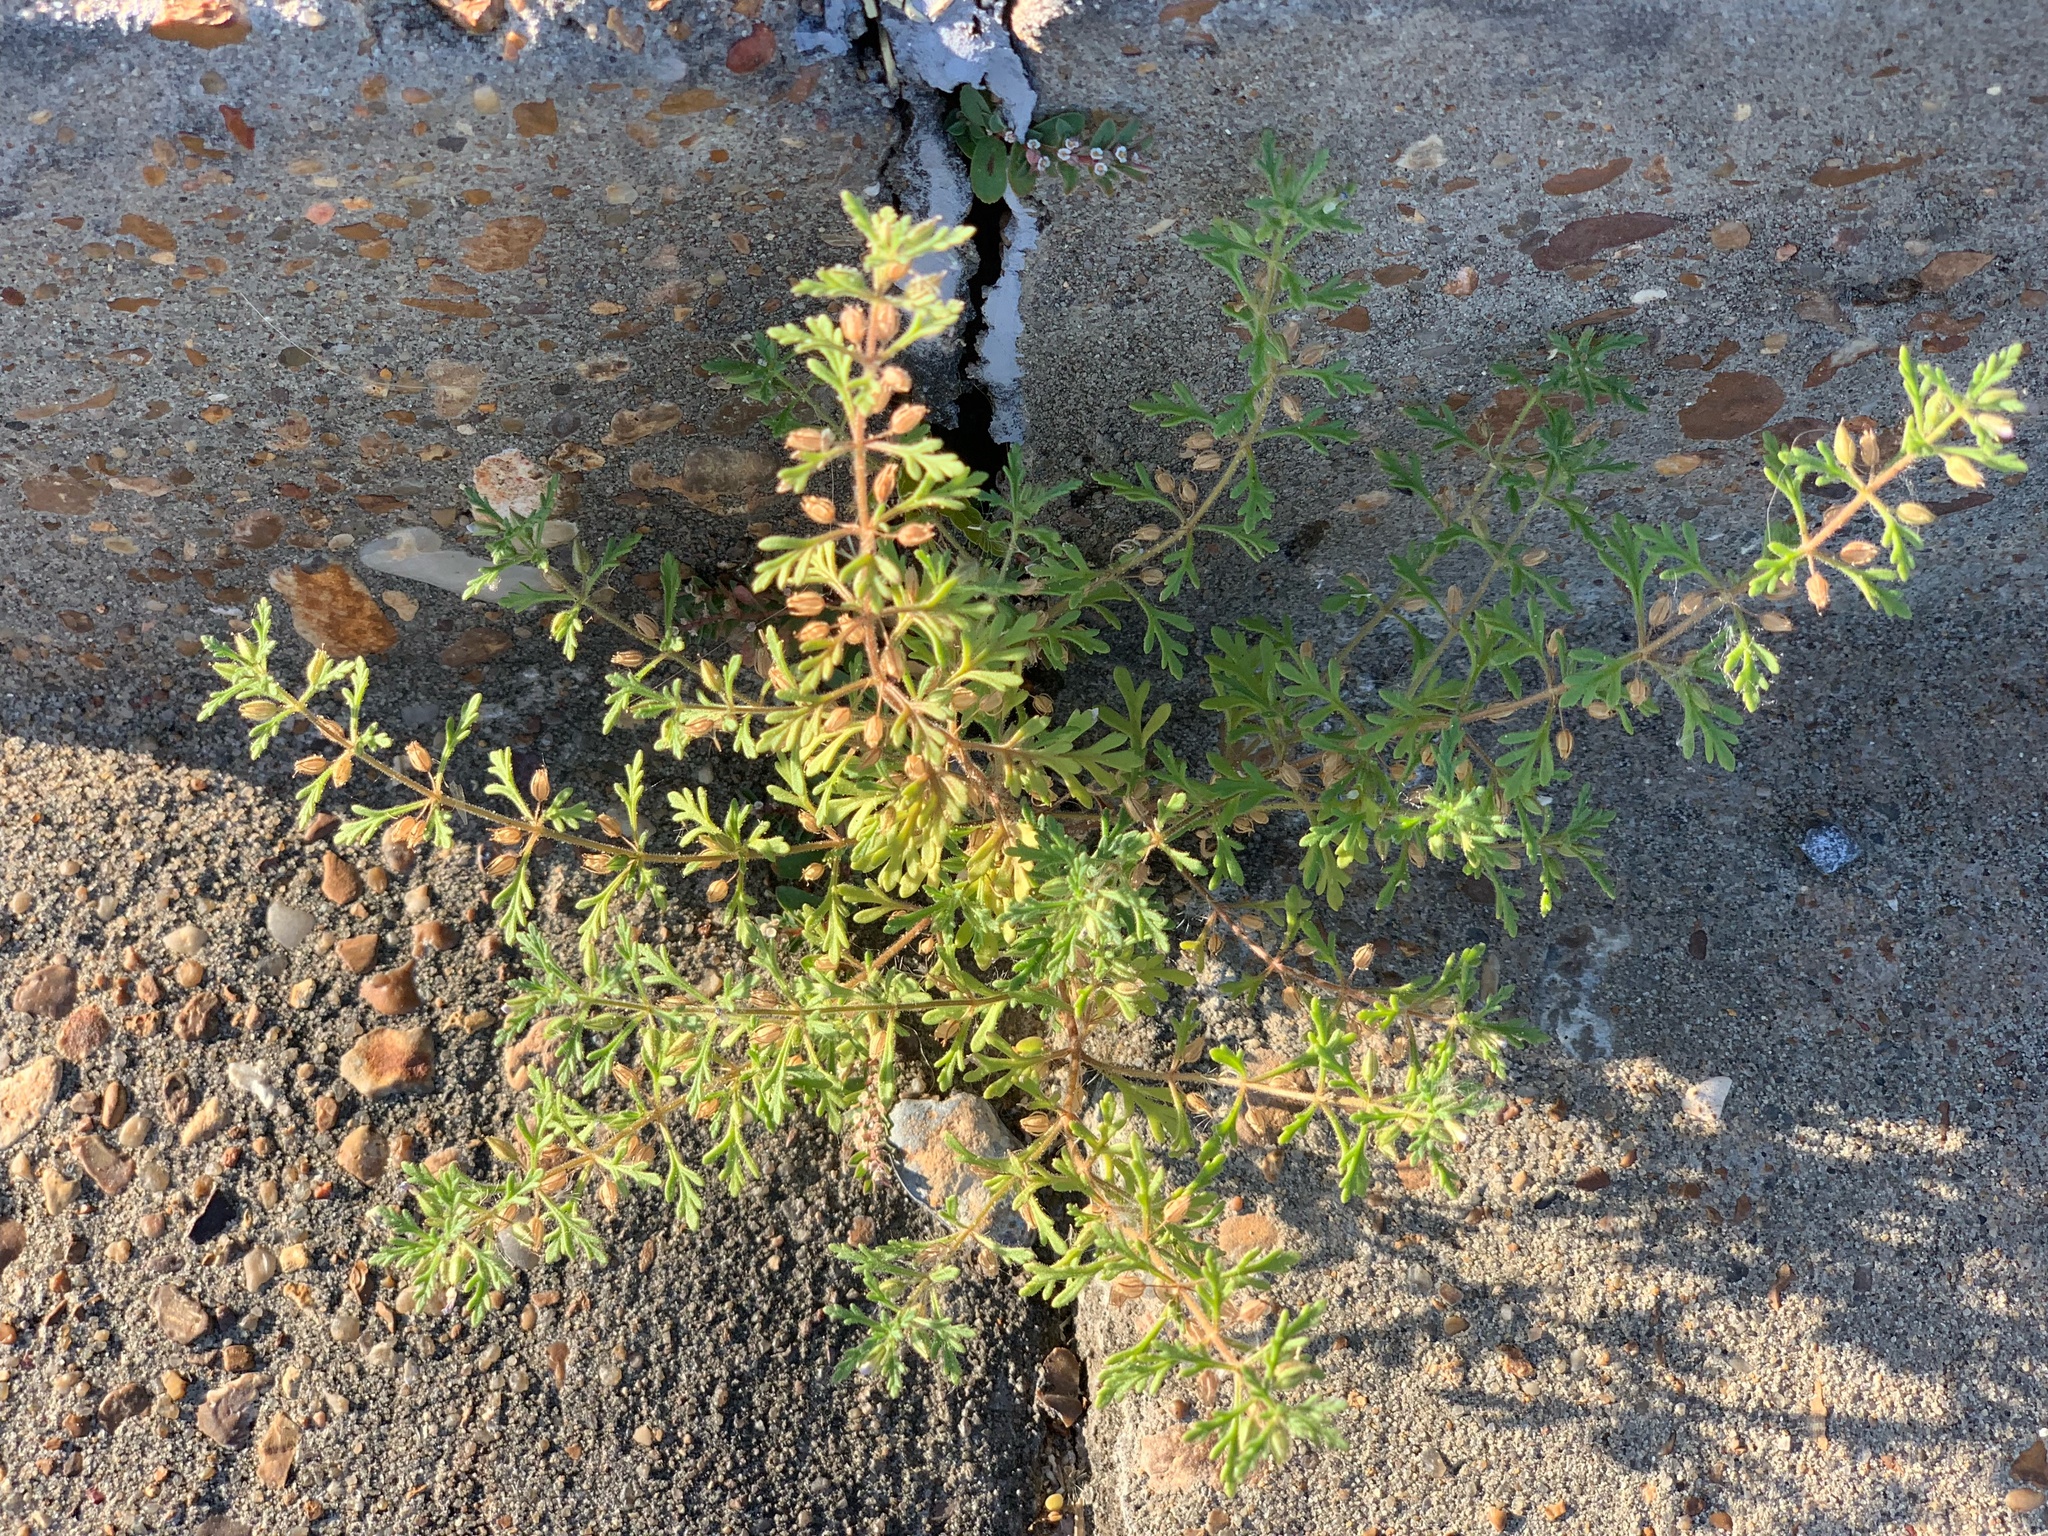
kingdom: Plantae
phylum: Tracheophyta
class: Magnoliopsida
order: Lamiales
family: Plantaginaceae
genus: Leucospora
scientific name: Leucospora multifida
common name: Narrow-leaf paleseed
